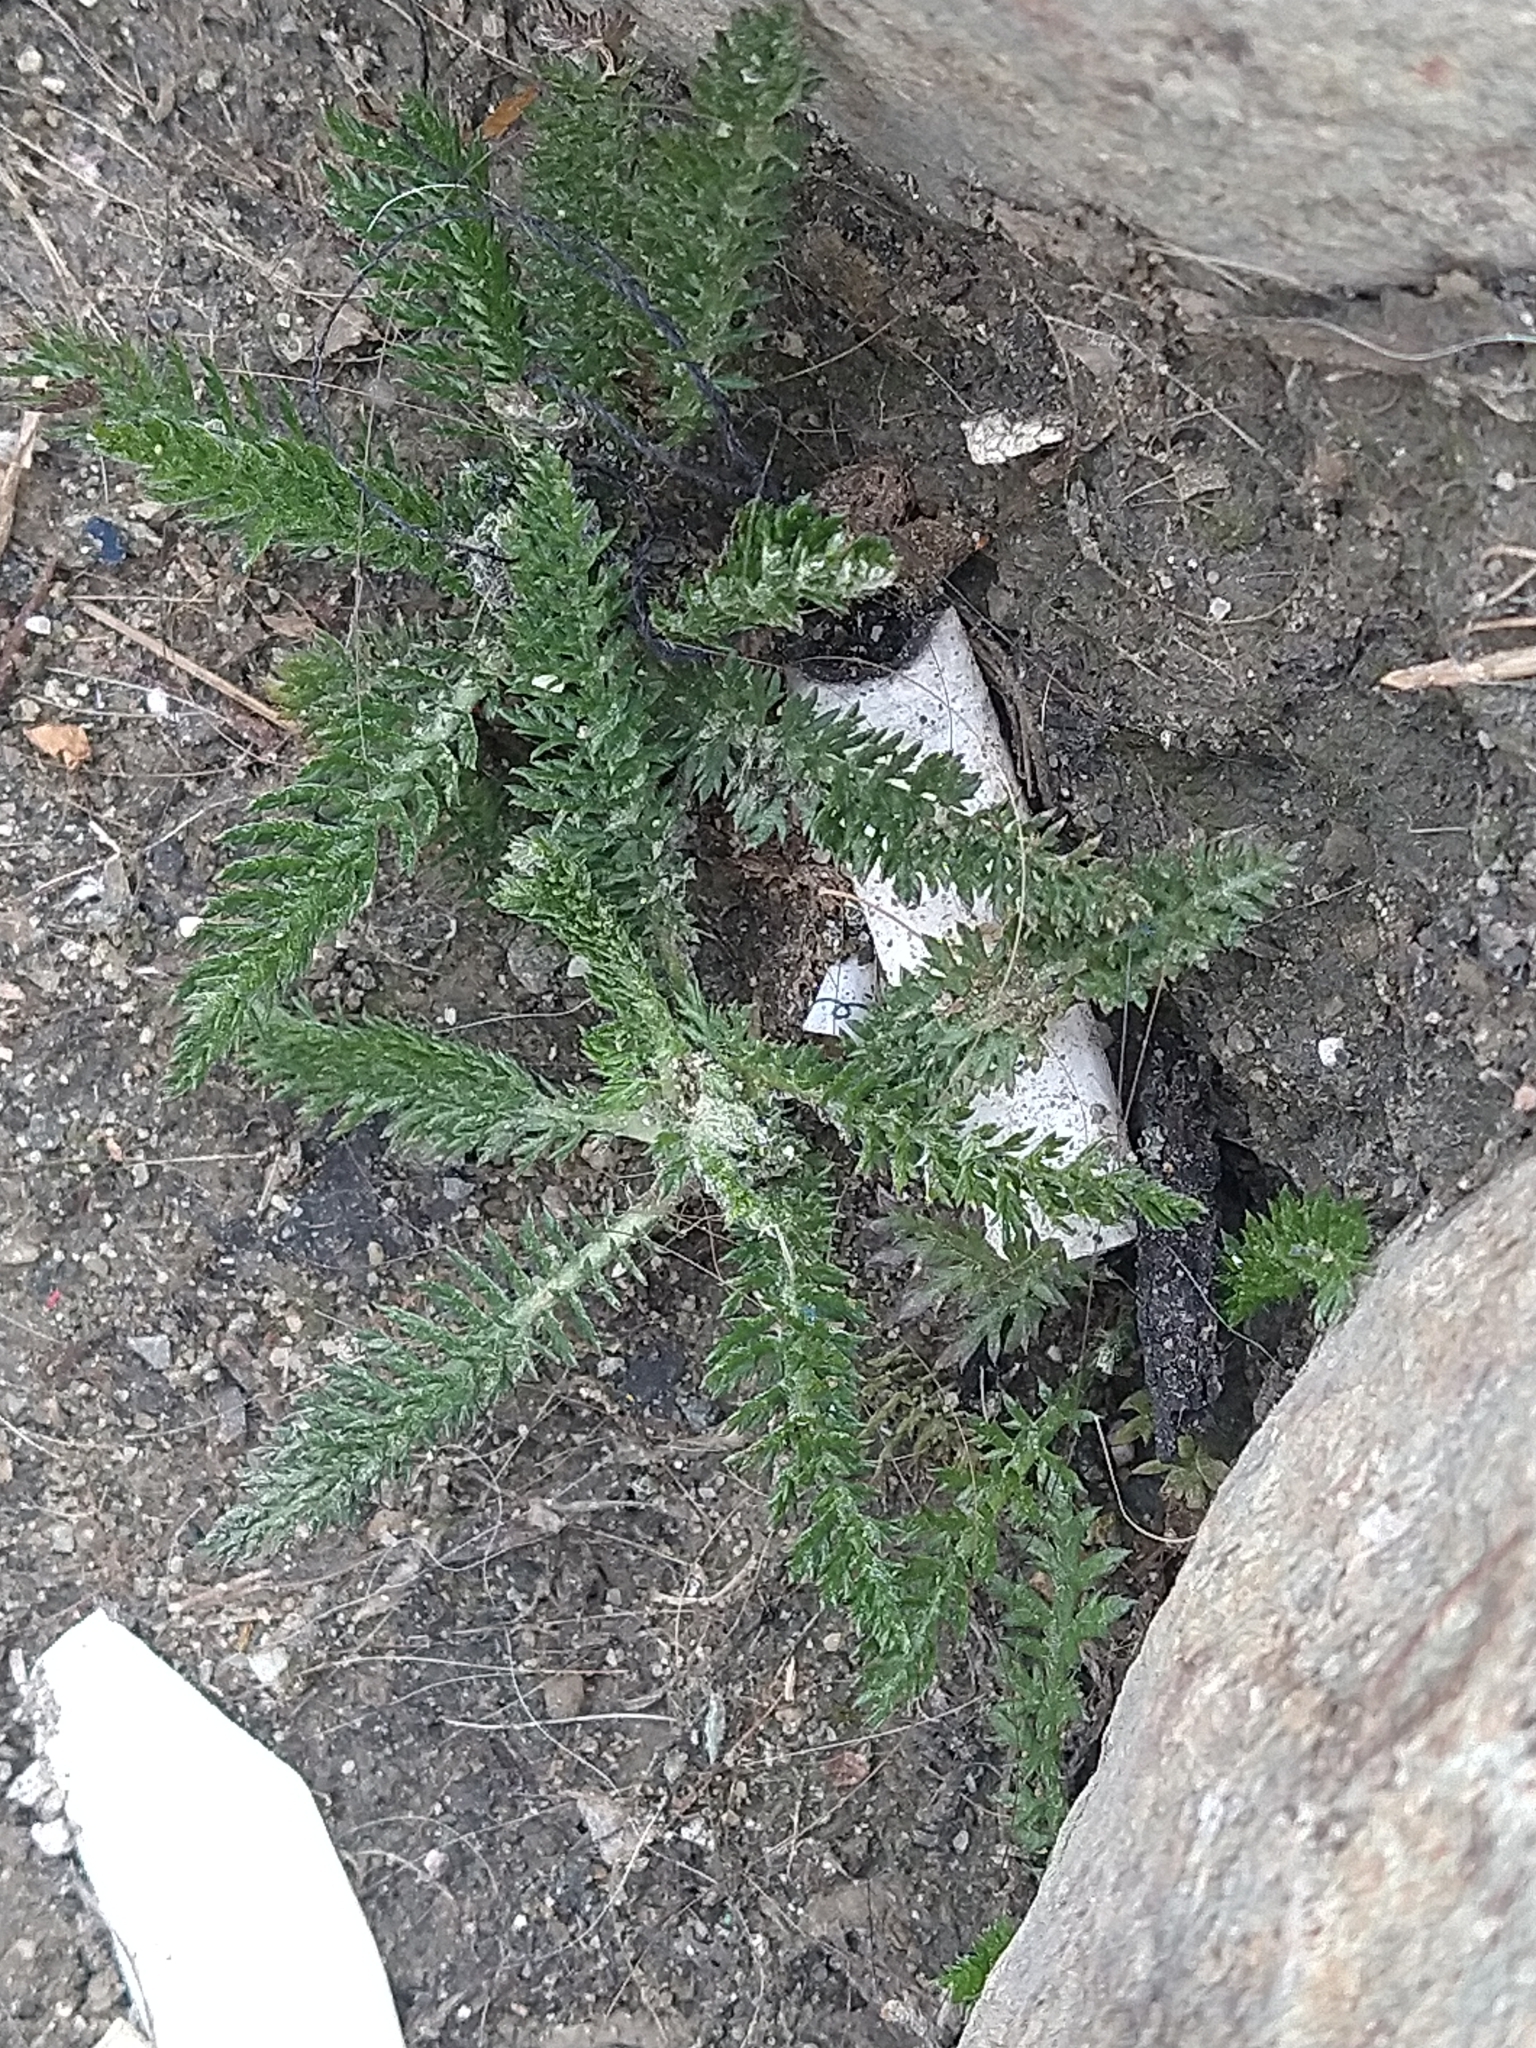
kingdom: Plantae
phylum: Tracheophyta
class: Magnoliopsida
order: Asterales
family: Asteraceae
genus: Achillea
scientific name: Achillea millefolium
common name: Yarrow
